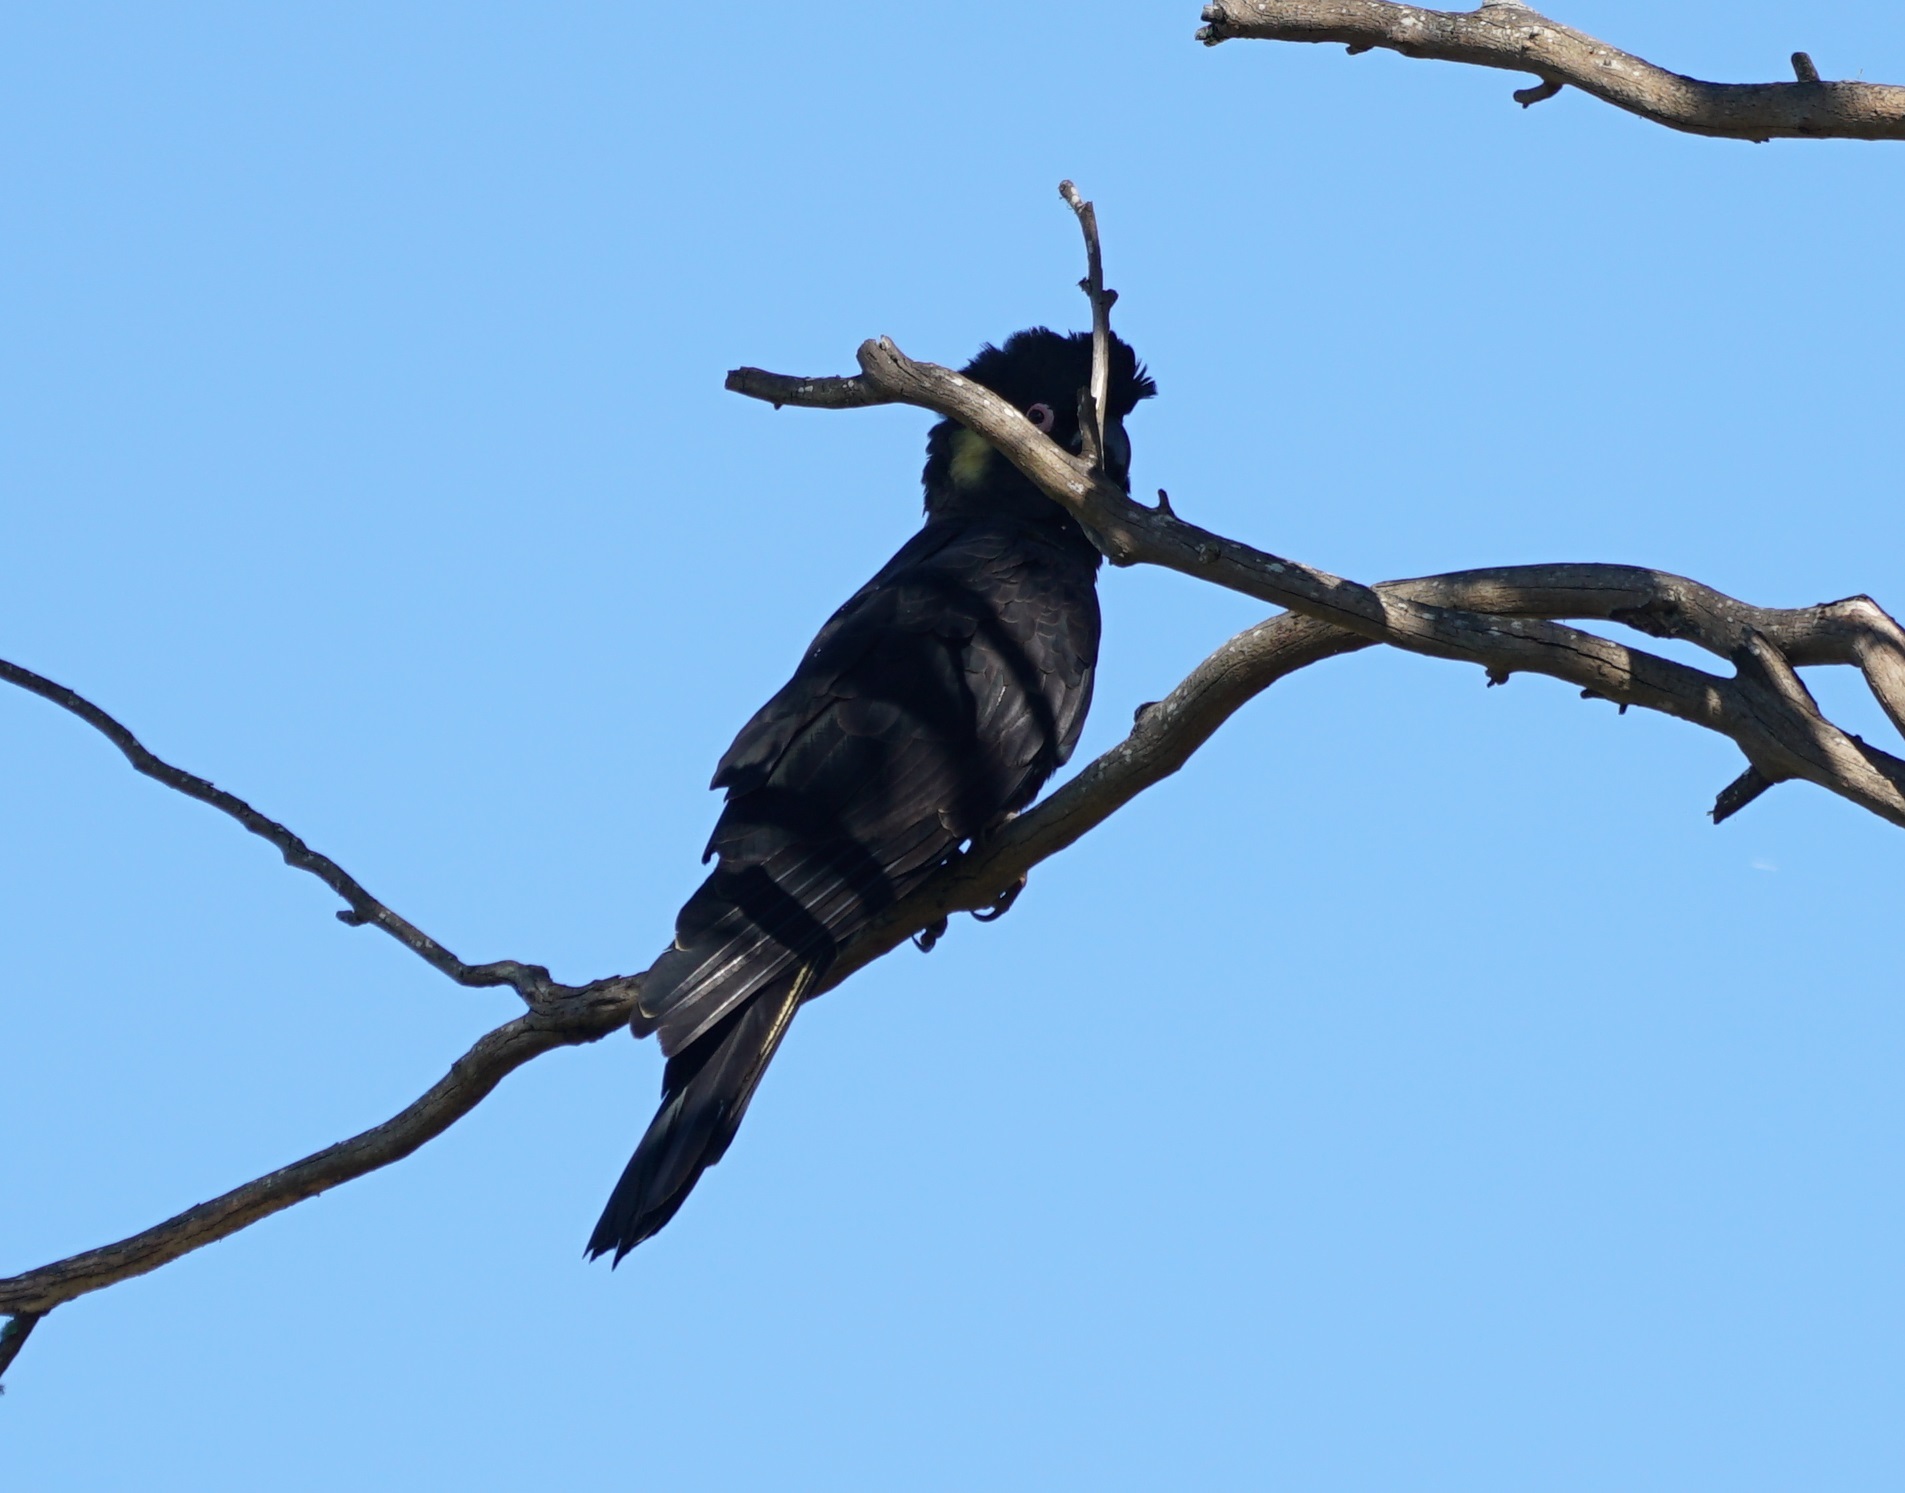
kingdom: Animalia
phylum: Chordata
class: Aves
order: Psittaciformes
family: Cacatuidae
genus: Zanda
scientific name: Zanda funerea
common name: Yellow-tailed black-cockatoo
